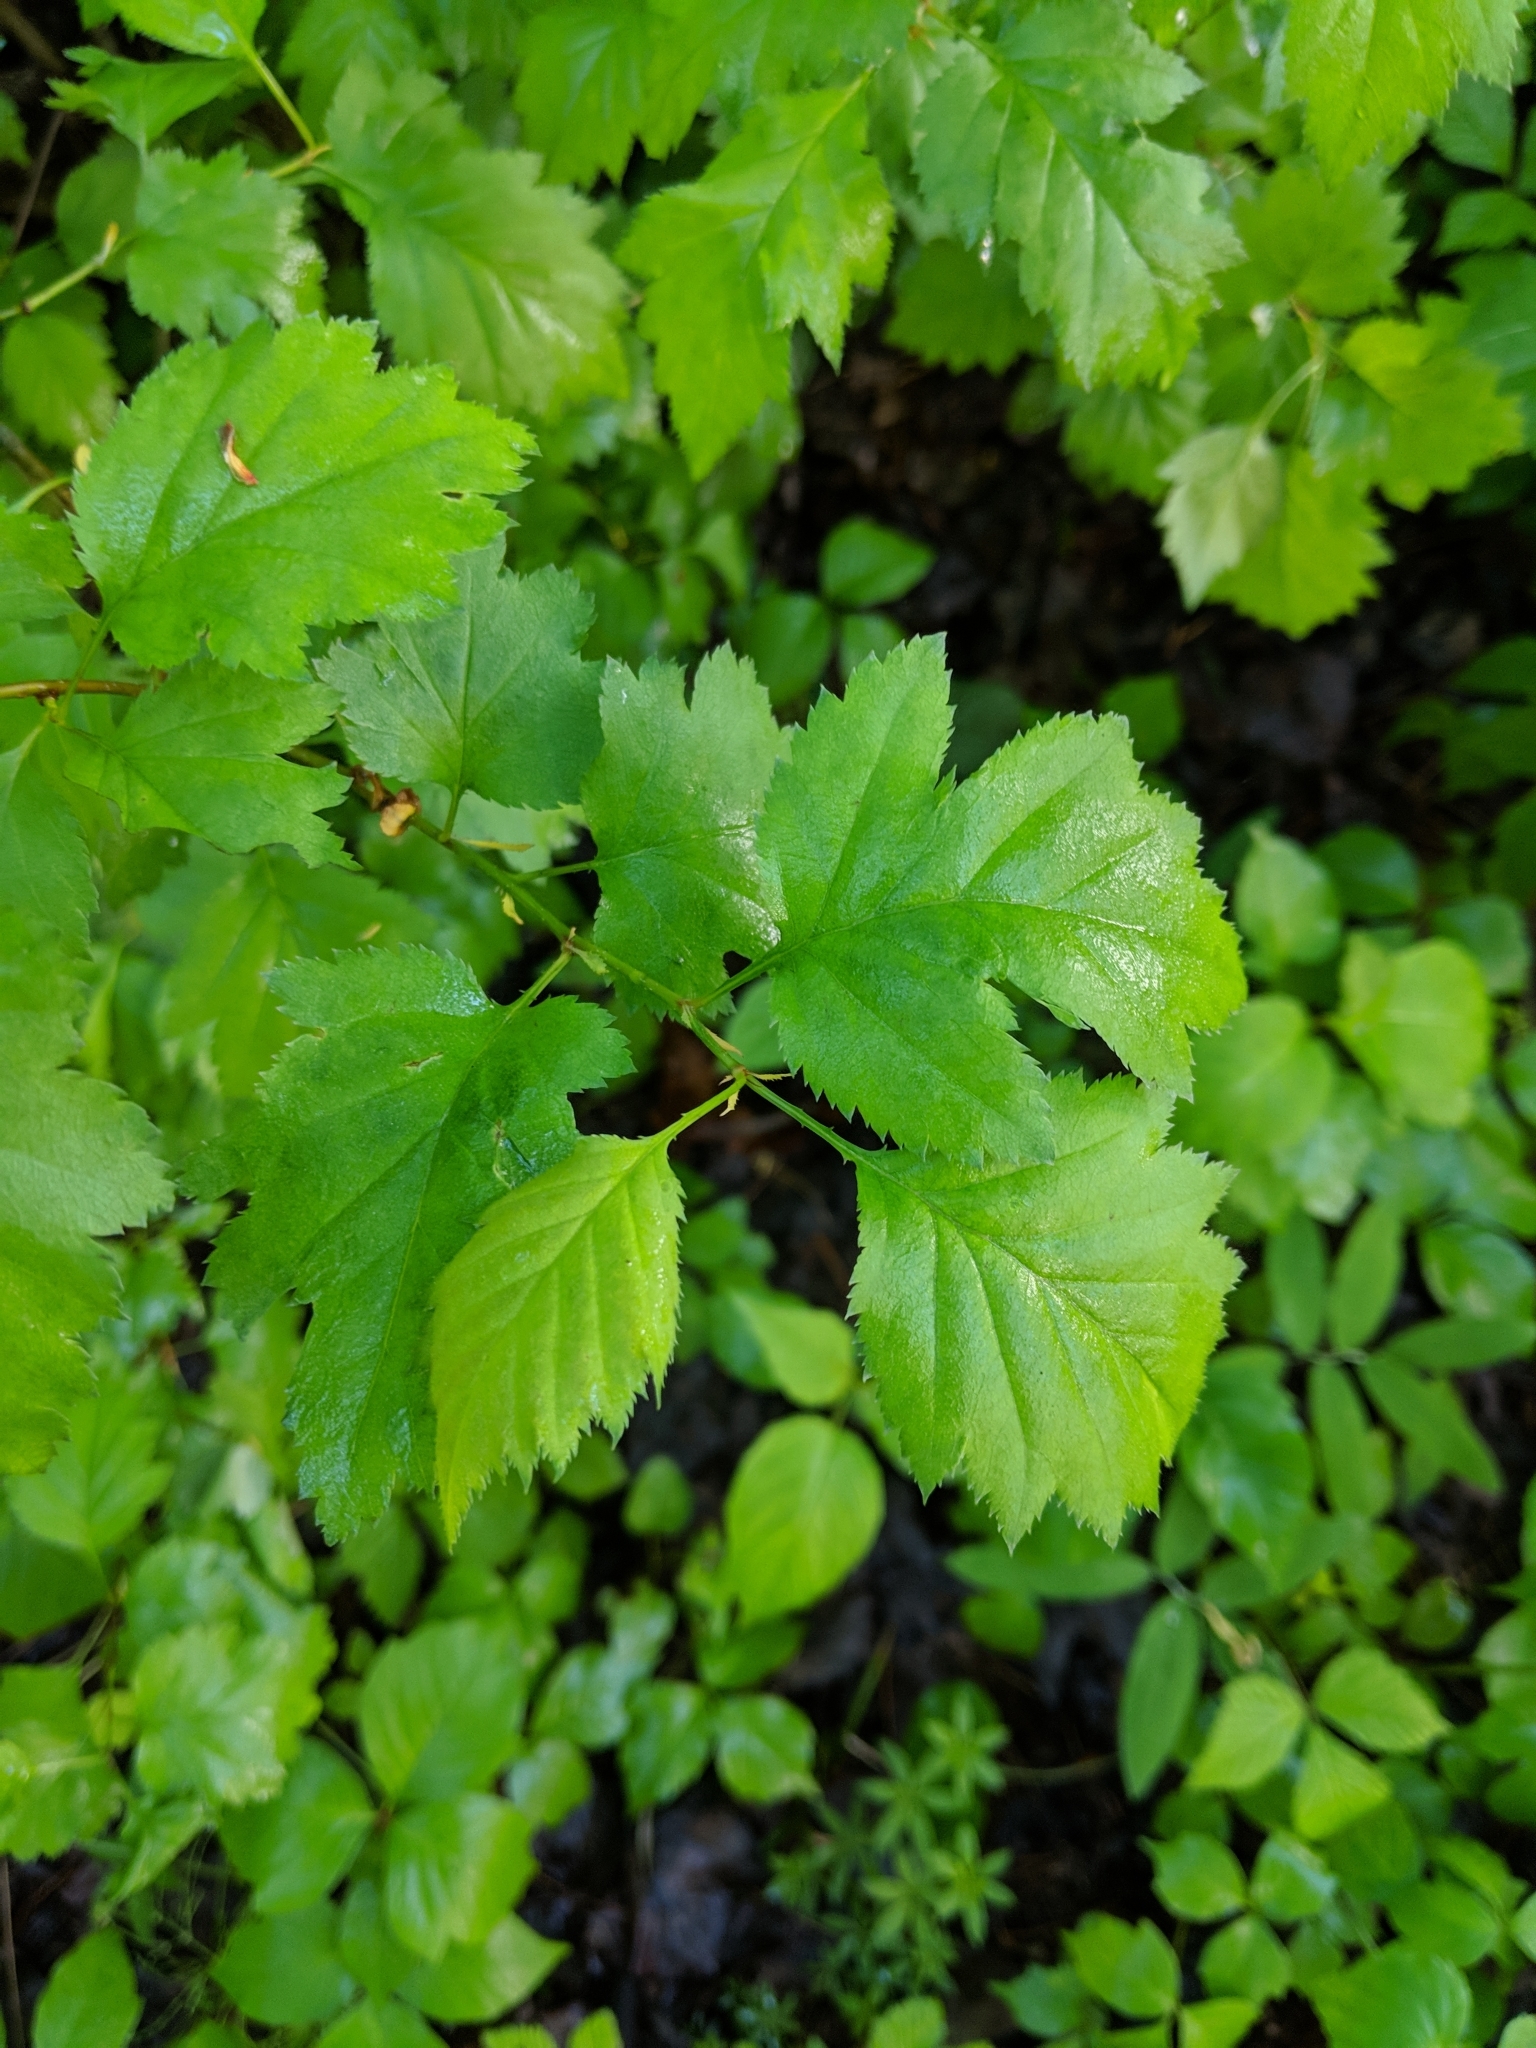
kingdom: Plantae
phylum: Tracheophyta
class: Magnoliopsida
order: Rosales
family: Rosaceae
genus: Crataegus
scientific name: Crataegus
